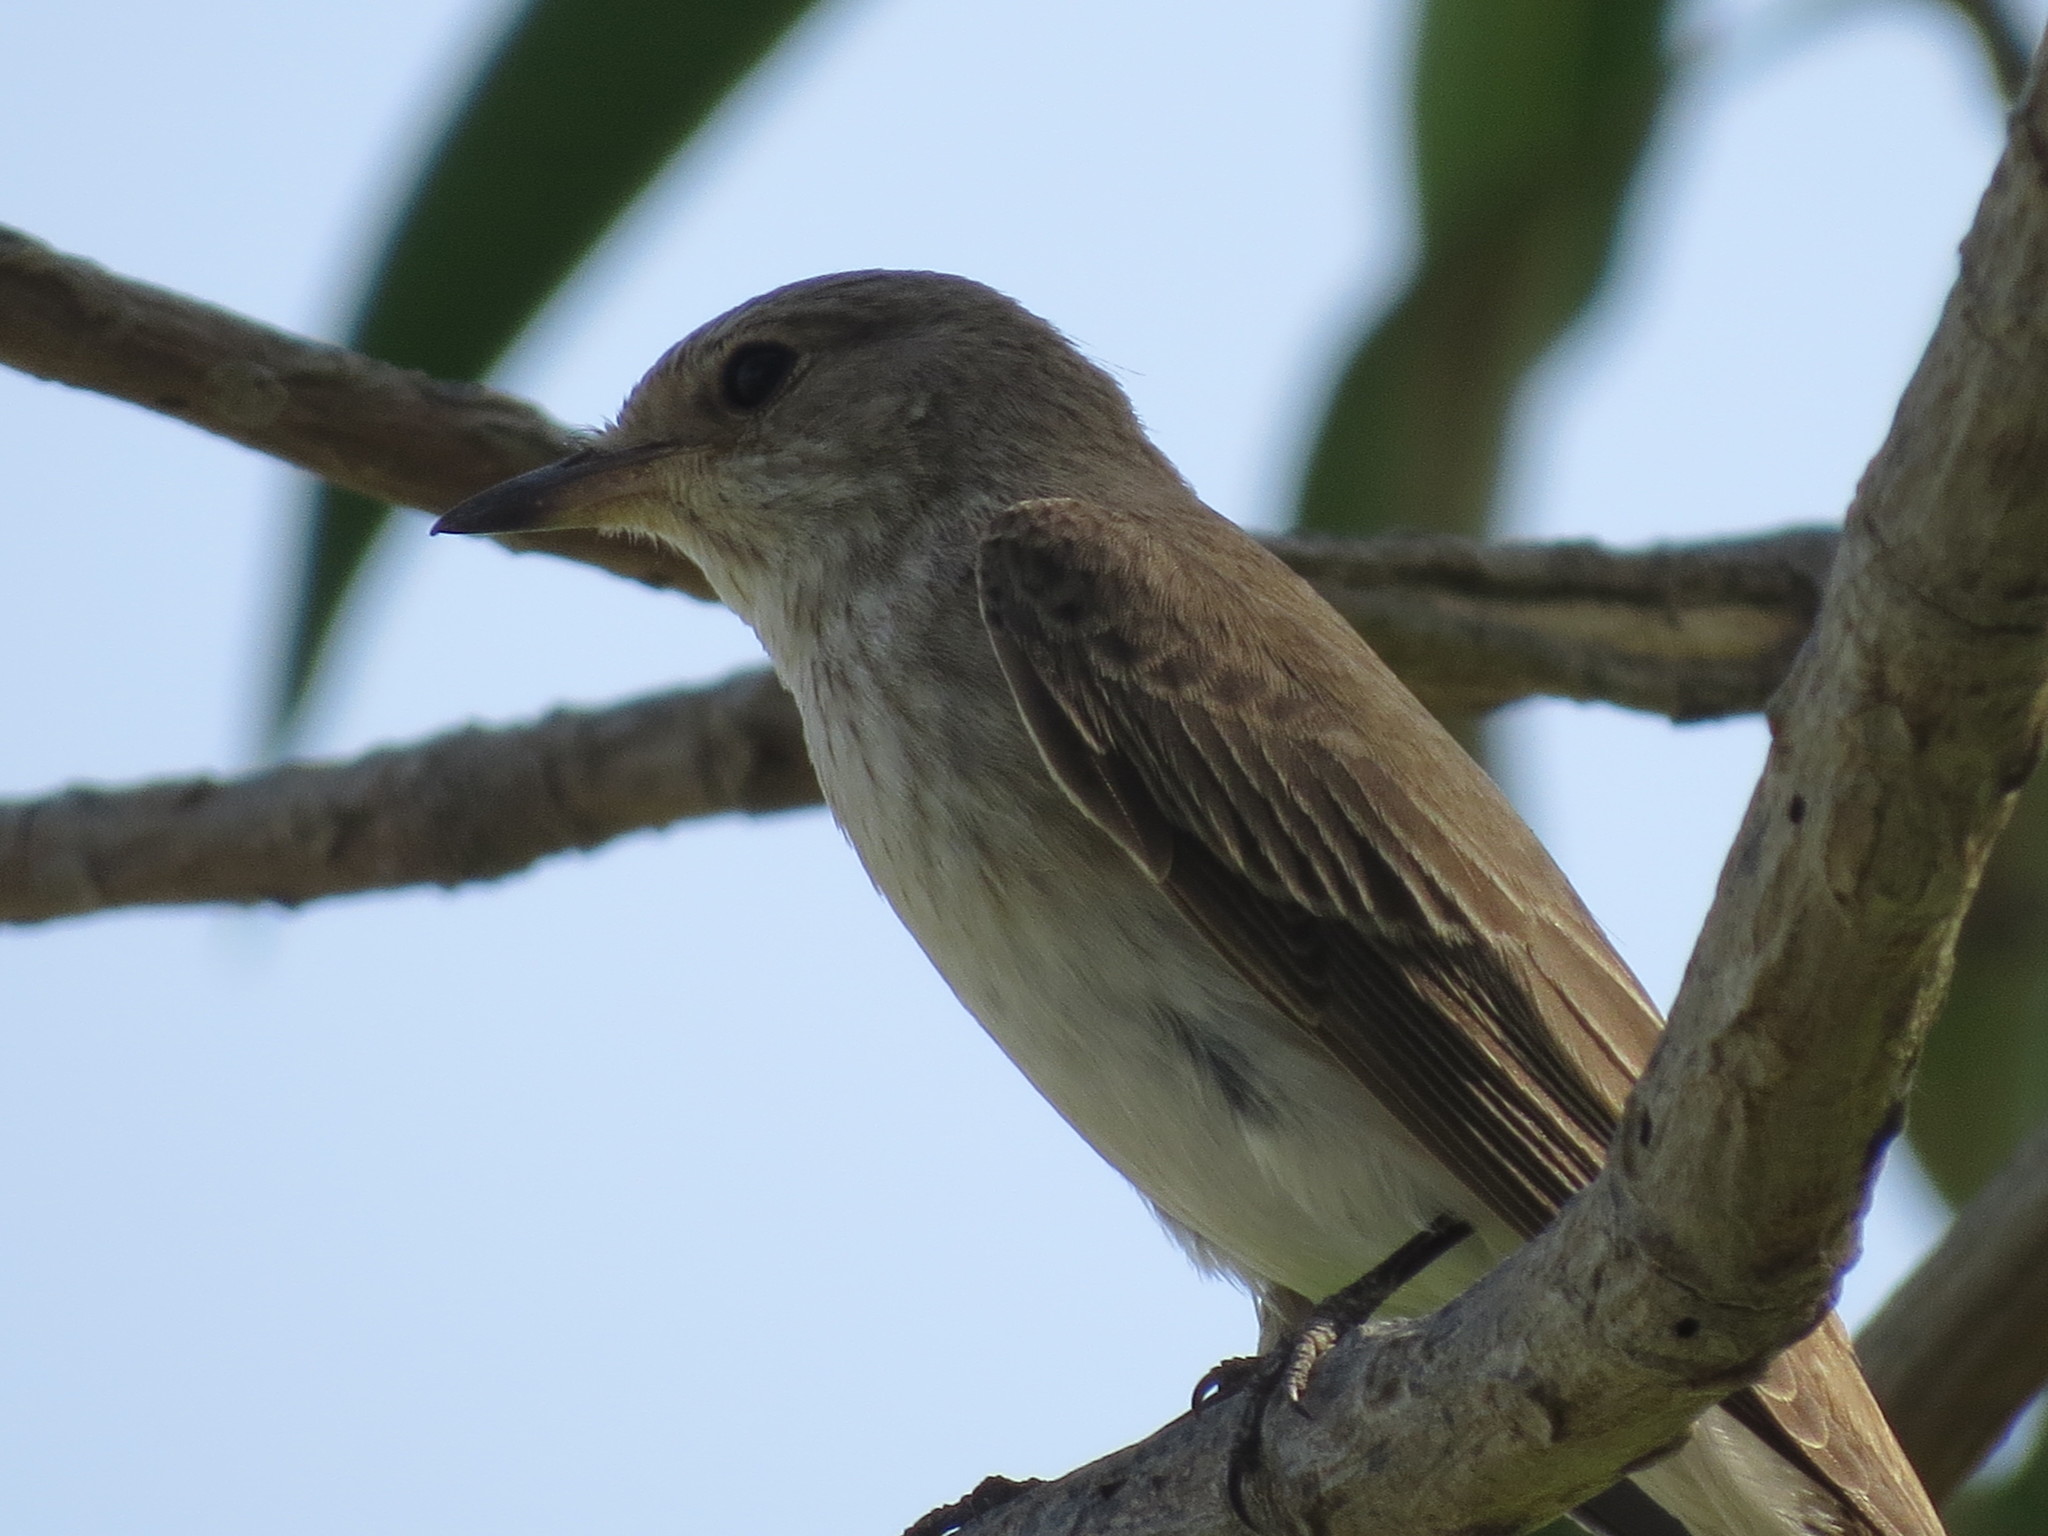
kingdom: Animalia
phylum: Chordata
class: Aves
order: Passeriformes
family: Muscicapidae
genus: Muscicapa
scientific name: Muscicapa striata
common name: Spotted flycatcher
